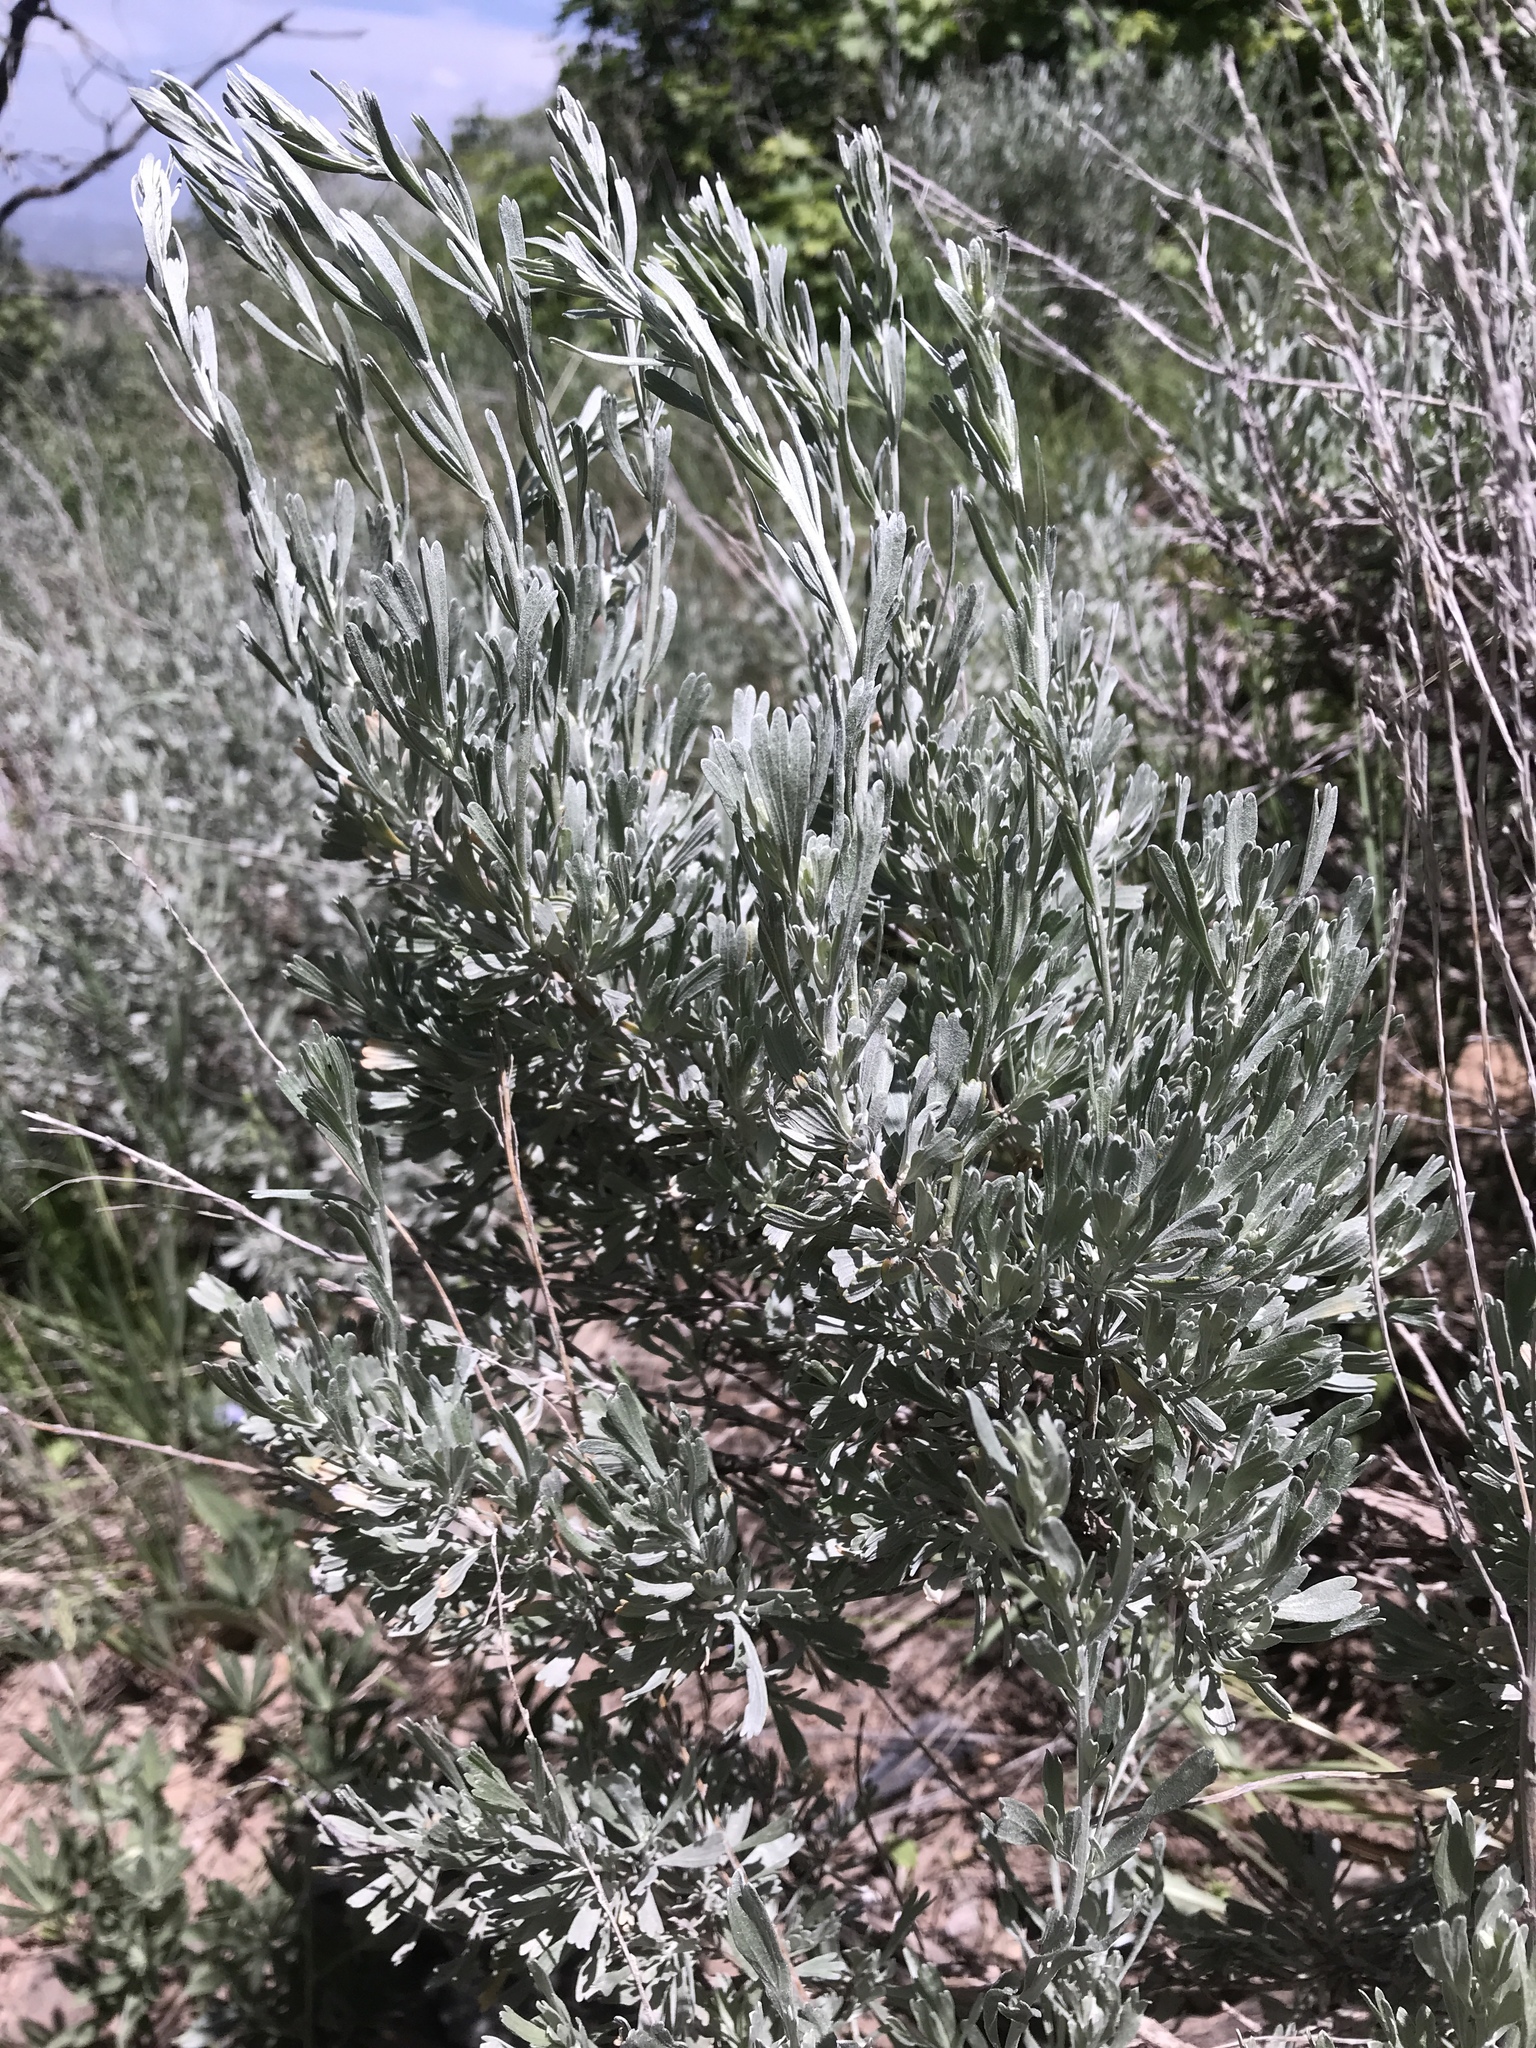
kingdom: Plantae
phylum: Tracheophyta
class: Magnoliopsida
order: Asterales
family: Asteraceae
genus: Artemisia
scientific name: Artemisia tridentata
